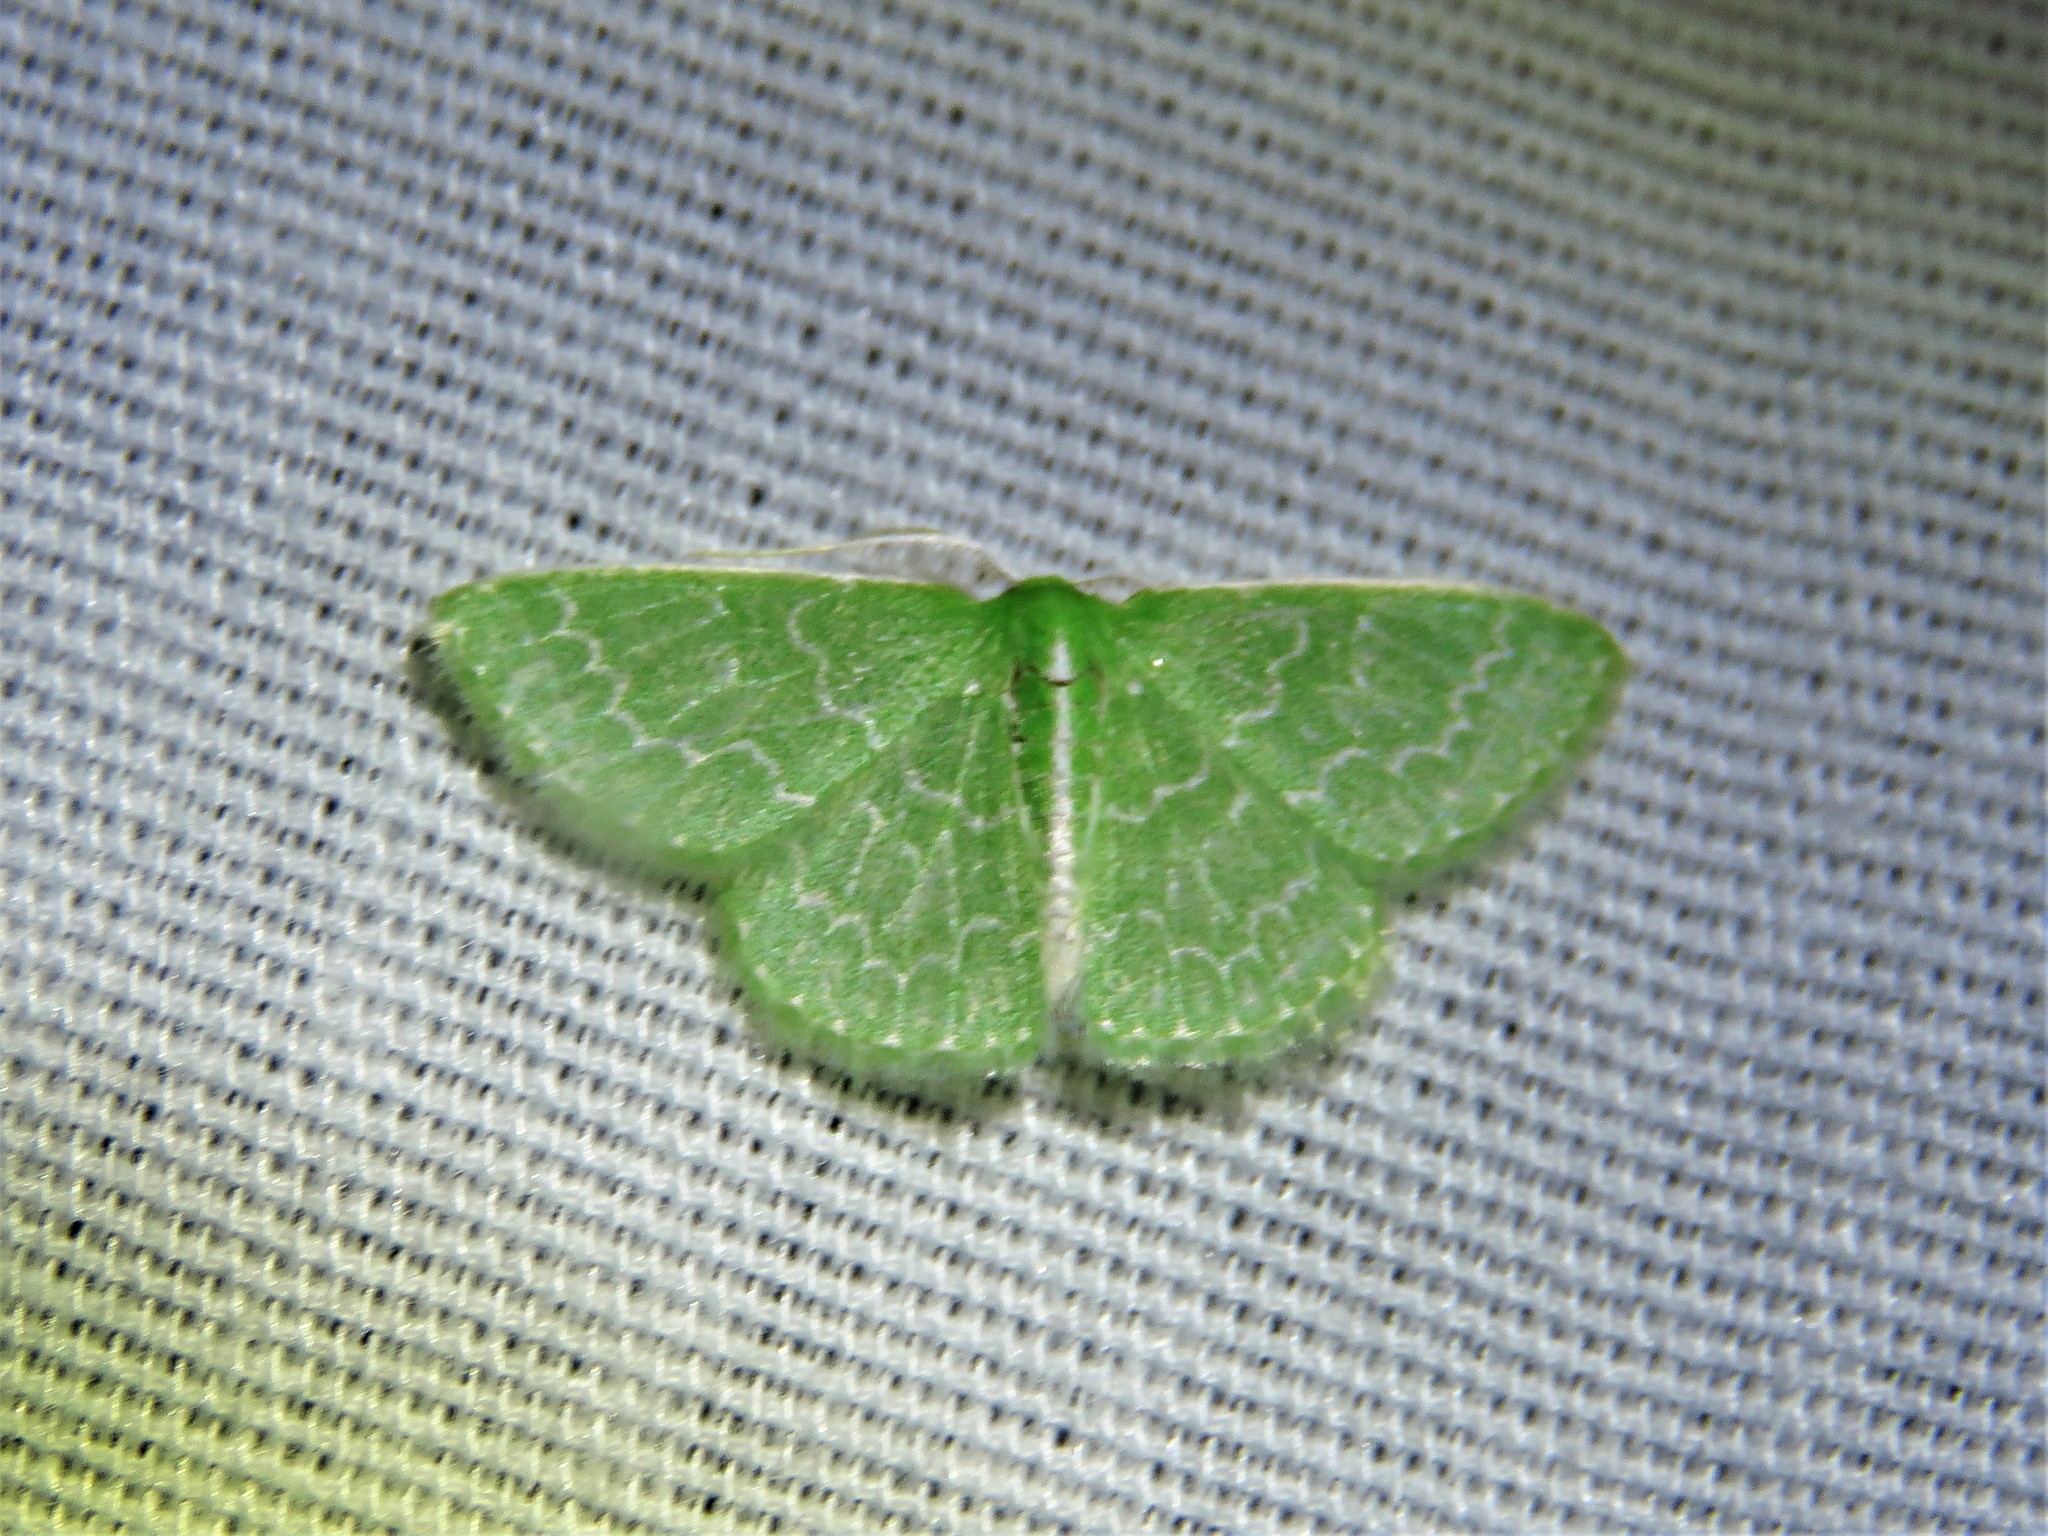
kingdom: Animalia
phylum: Arthropoda
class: Insecta
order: Lepidoptera
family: Geometridae
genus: Synchlora
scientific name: Synchlora frondaria
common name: Southern emerald
